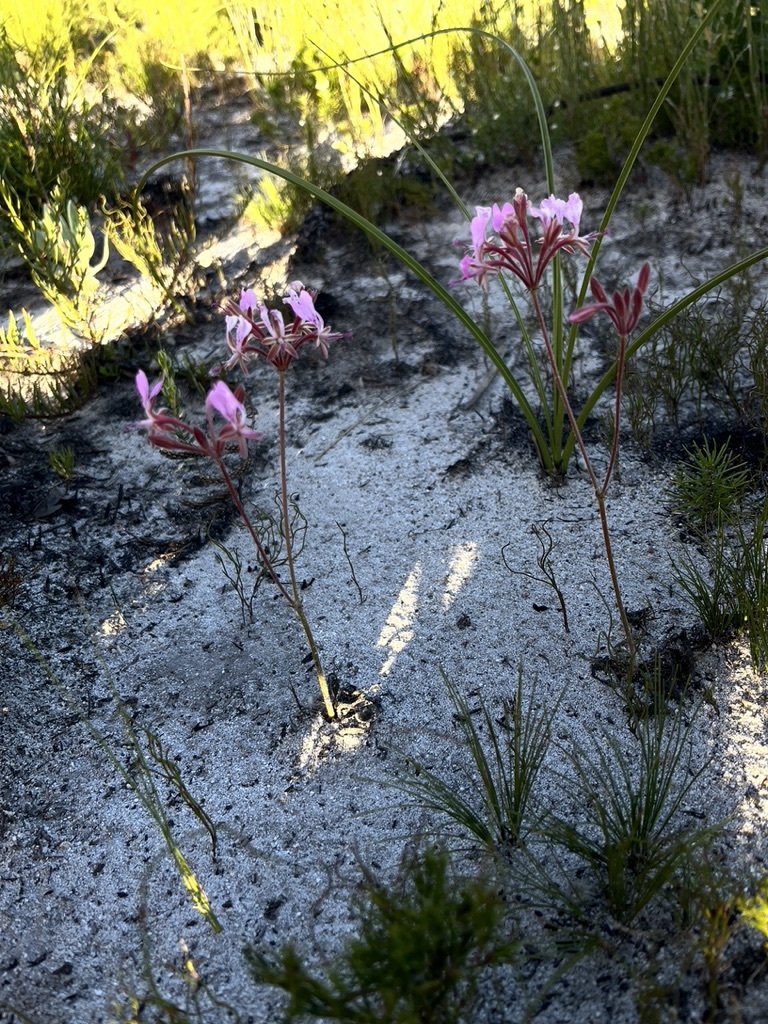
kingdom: Plantae
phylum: Tracheophyta
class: Magnoliopsida
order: Geraniales
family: Geraniaceae
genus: Pelargonium
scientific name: Pelargonium dipetalum
